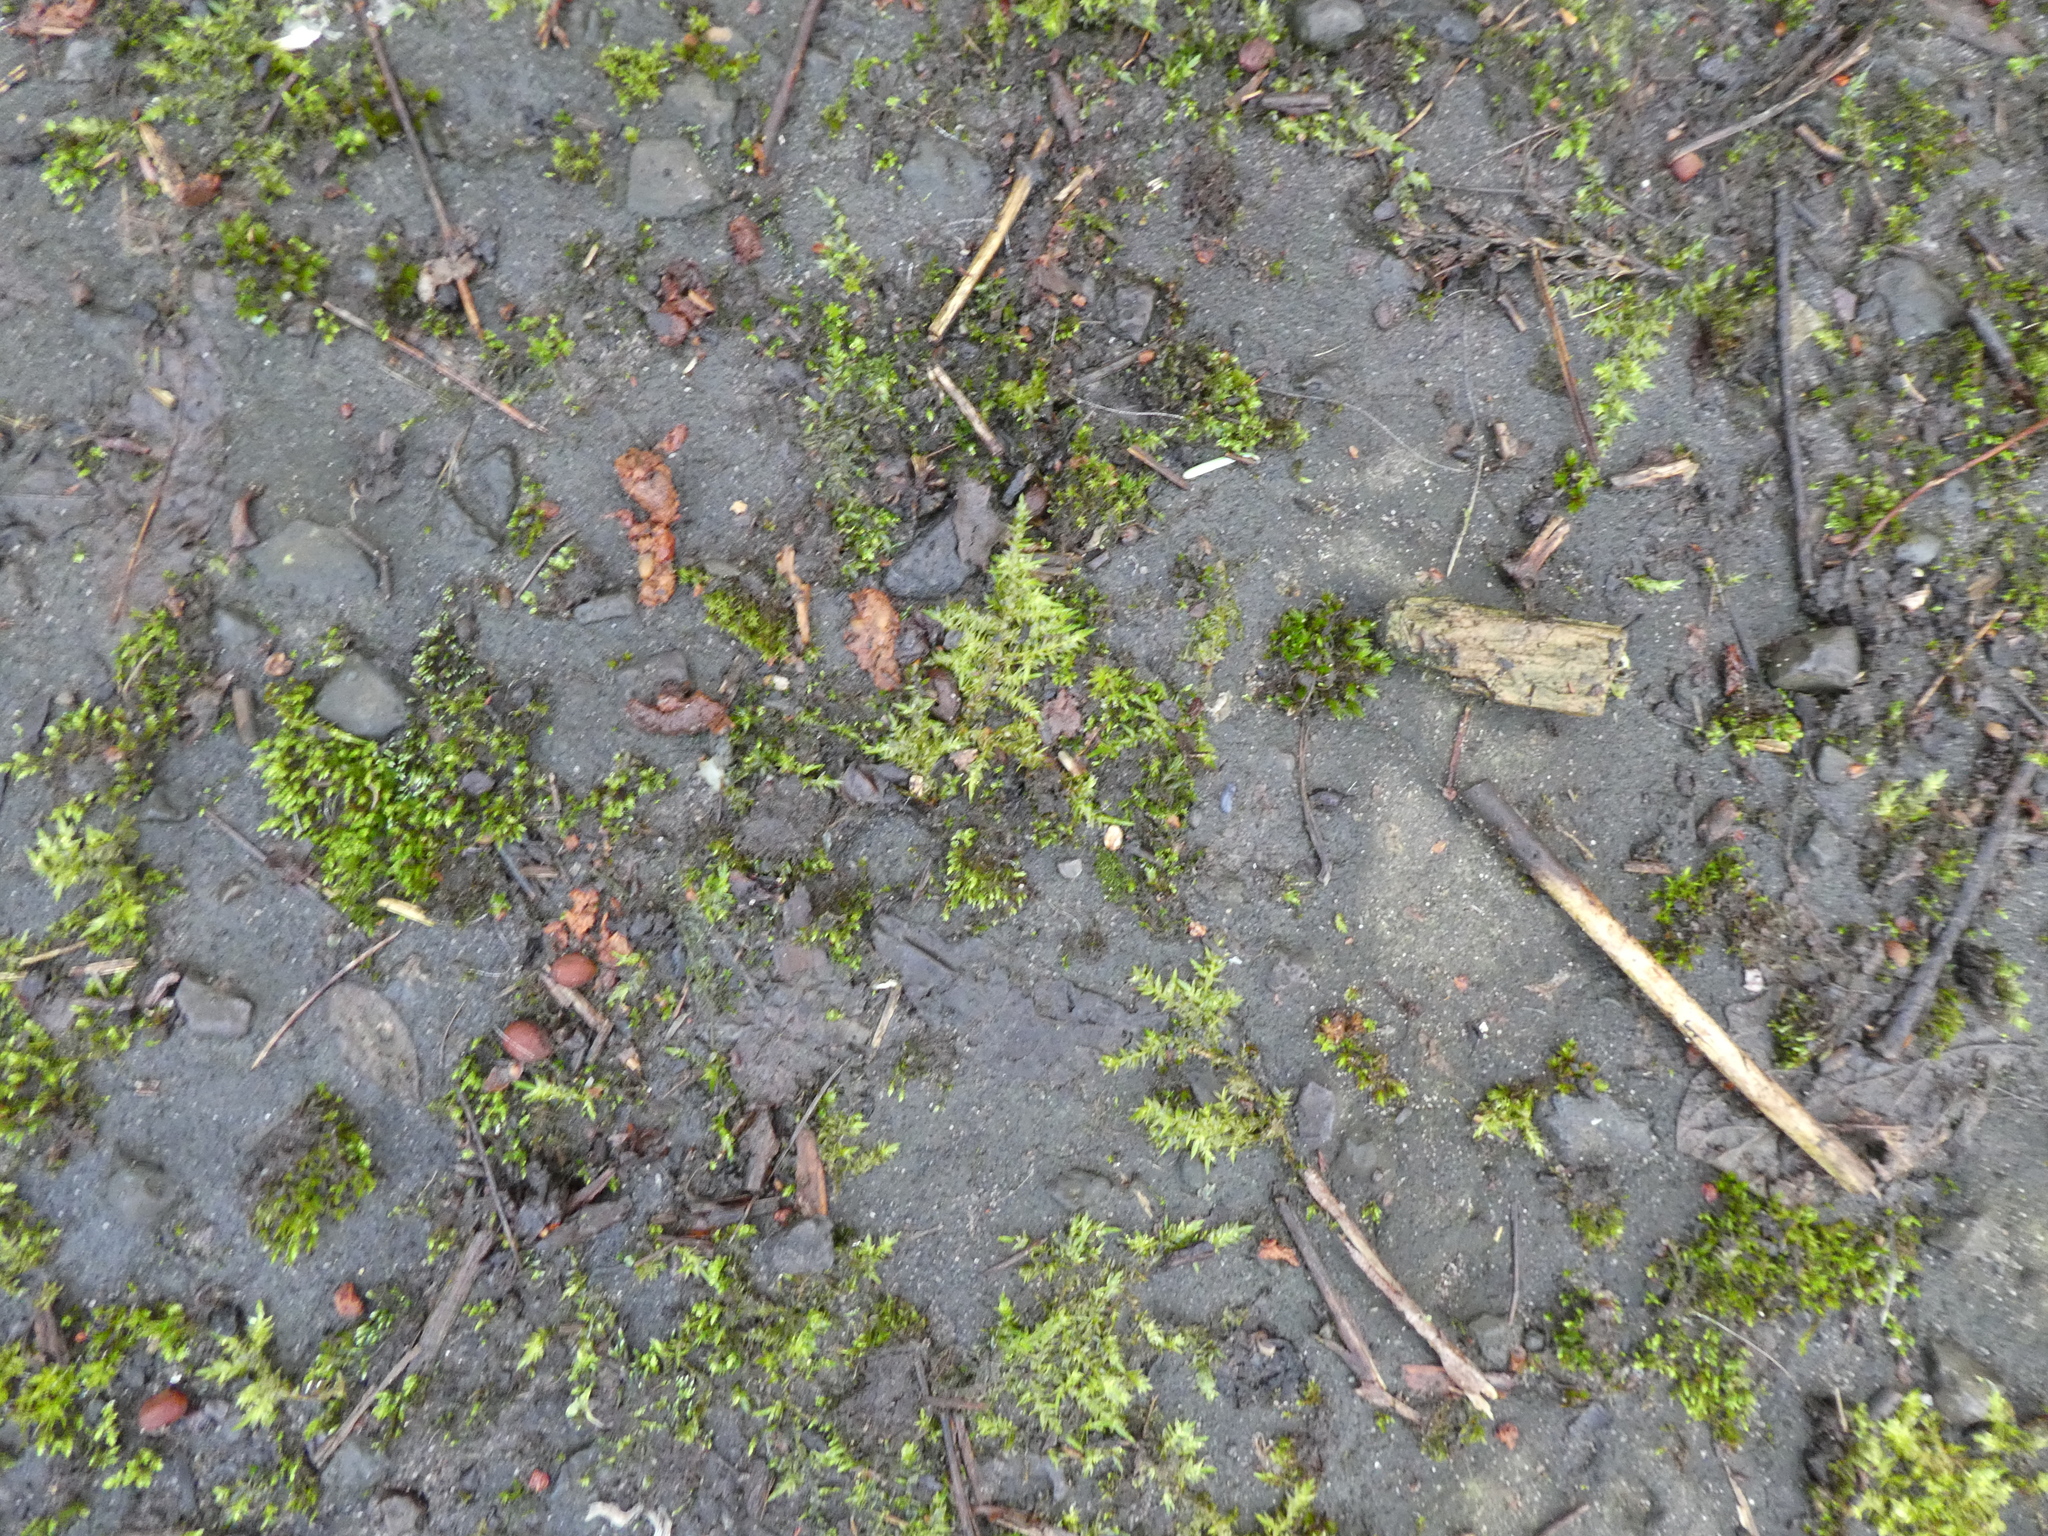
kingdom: Plantae
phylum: Bryophyta
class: Bryopsida
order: Hypnales
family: Pylaisiaceae
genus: Calliergonella
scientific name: Calliergonella cuspidata
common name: Common large wetland moss
